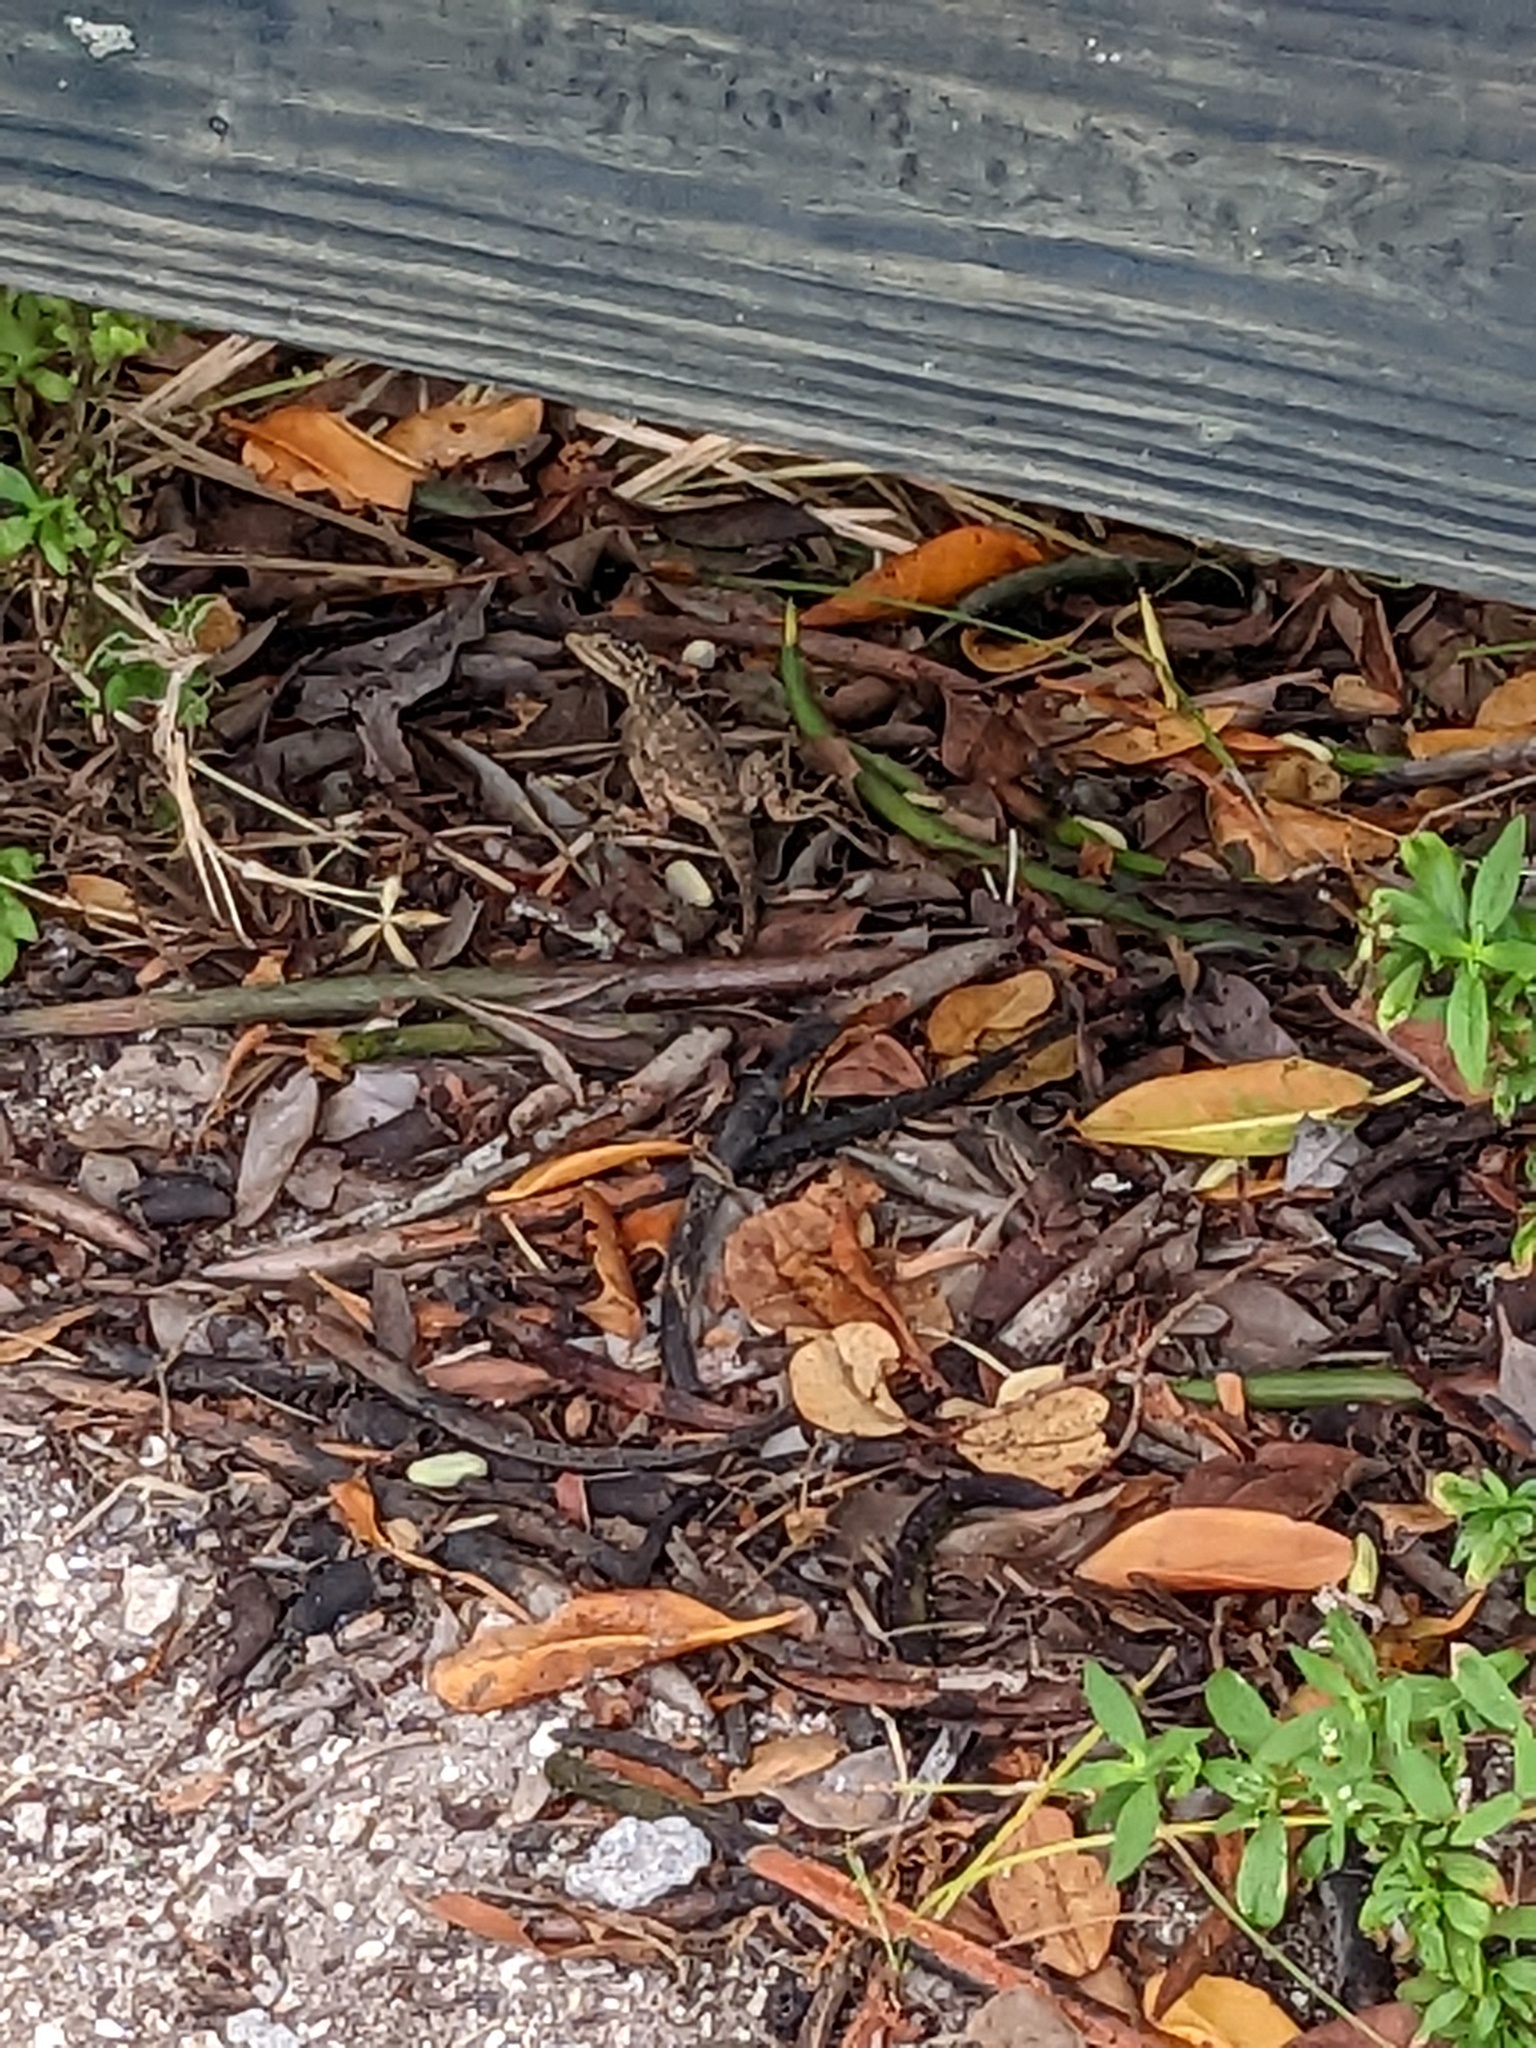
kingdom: Animalia
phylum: Chordata
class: Squamata
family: Dactyloidae
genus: Anolis
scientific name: Anolis sagrei
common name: Brown anole
